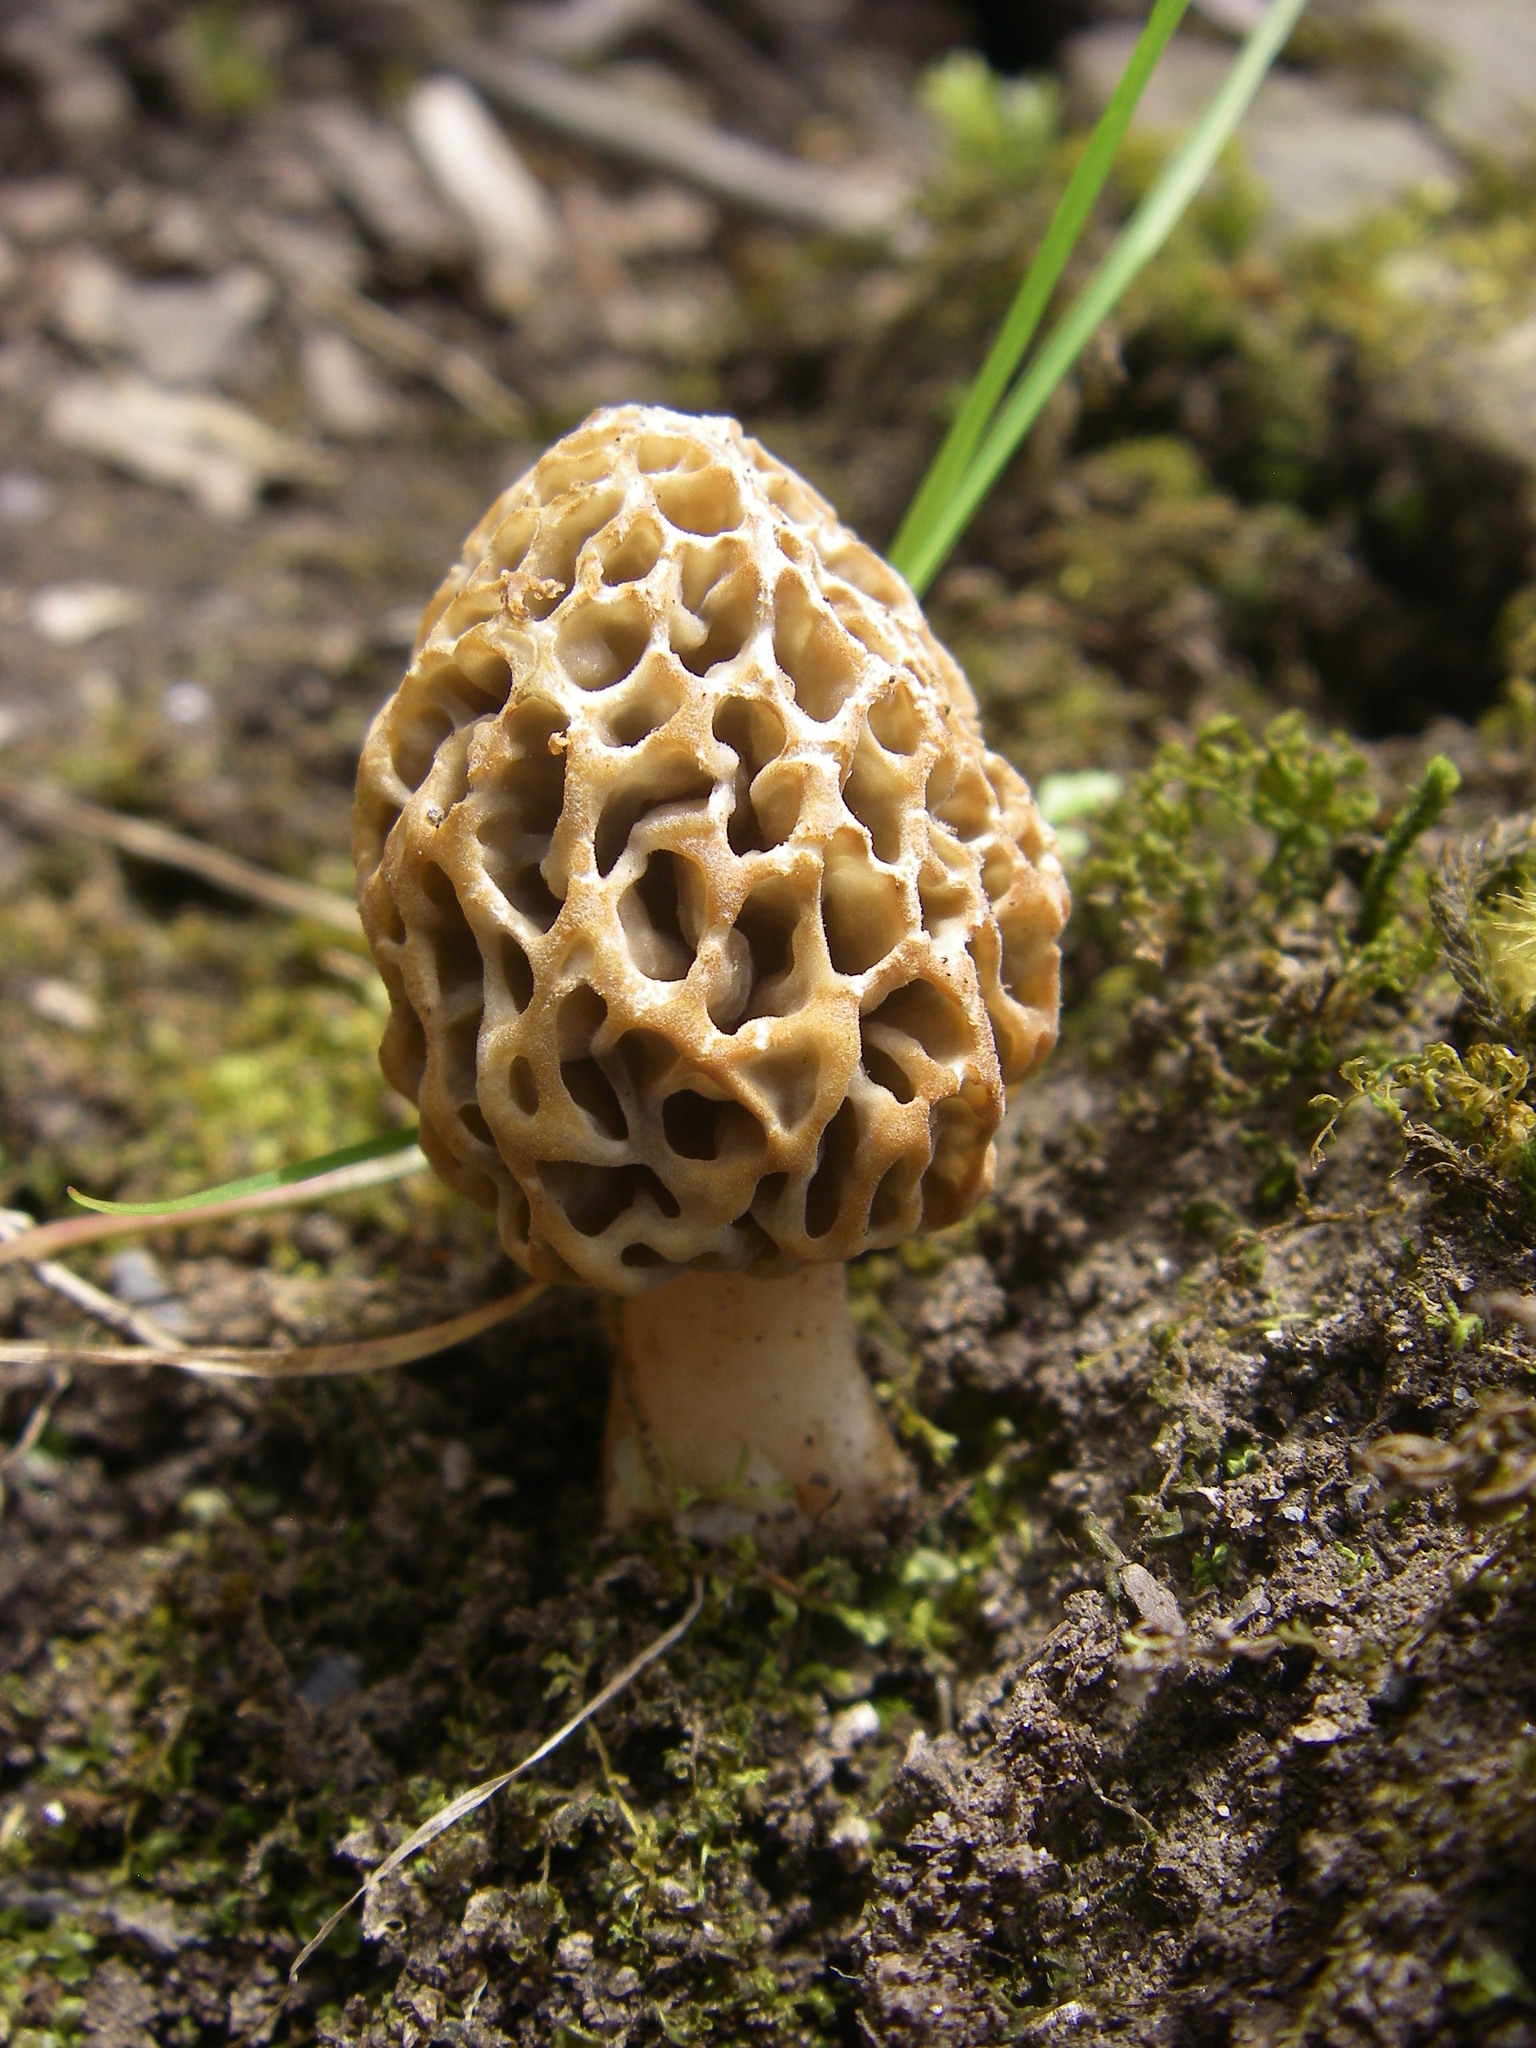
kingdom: Fungi
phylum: Ascomycota
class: Pezizomycetes
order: Pezizales
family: Morchellaceae
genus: Morchella
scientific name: Morchella
